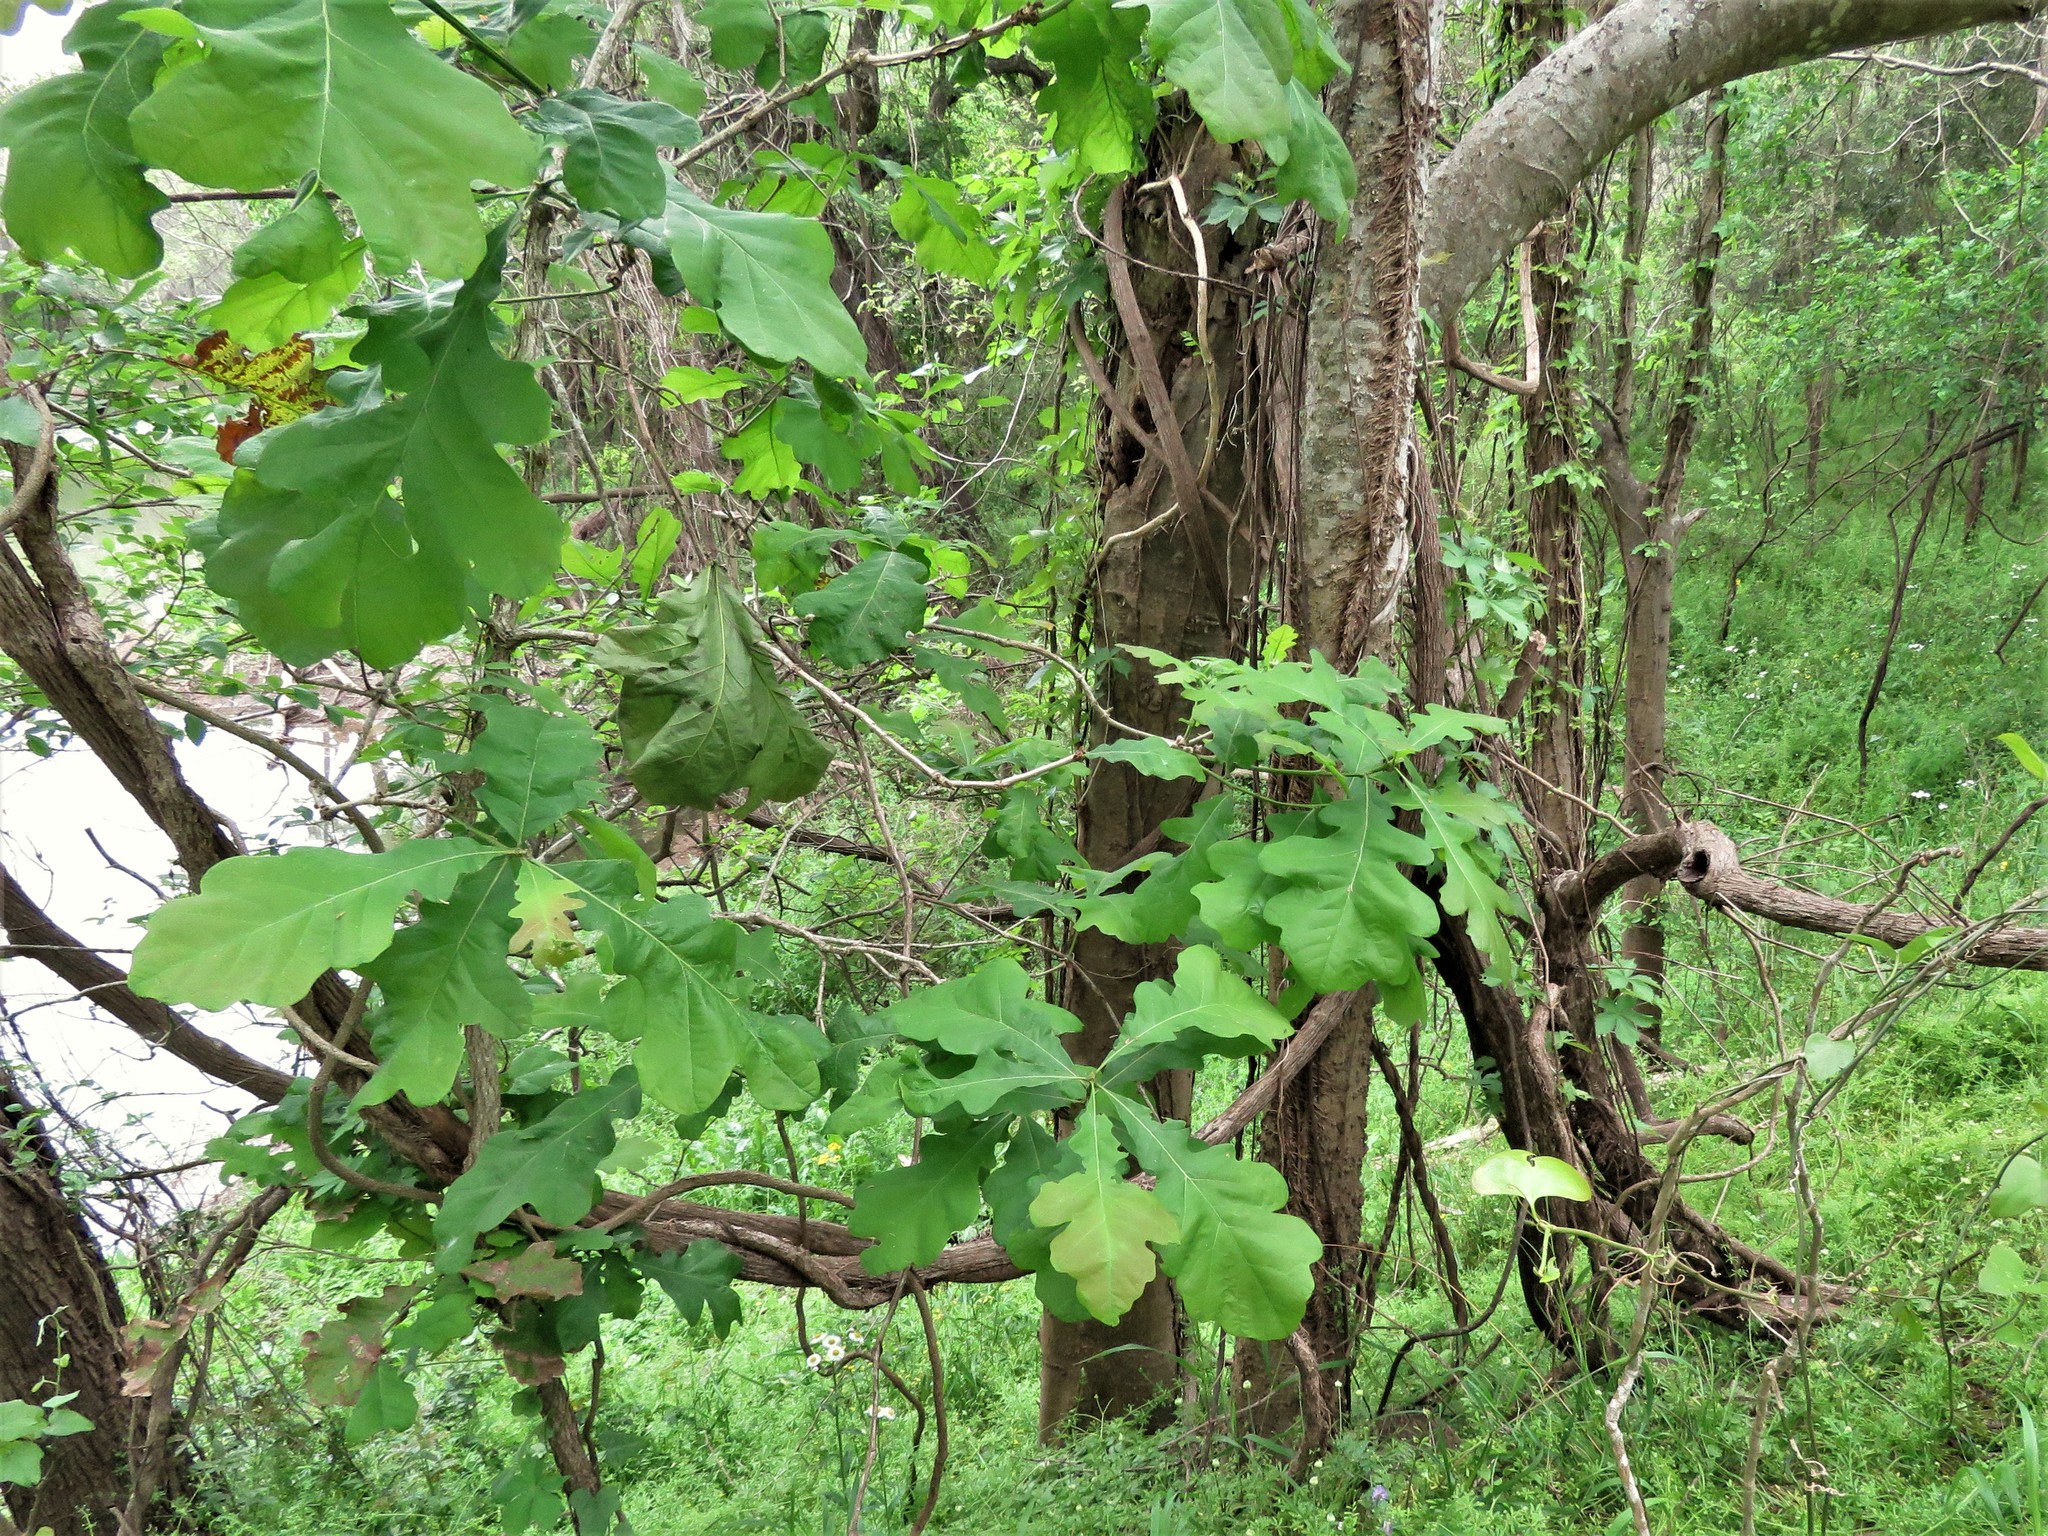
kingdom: Plantae
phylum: Tracheophyta
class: Magnoliopsida
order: Fagales
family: Fagaceae
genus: Quercus
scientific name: Quercus macrocarpa
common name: Bur oak
